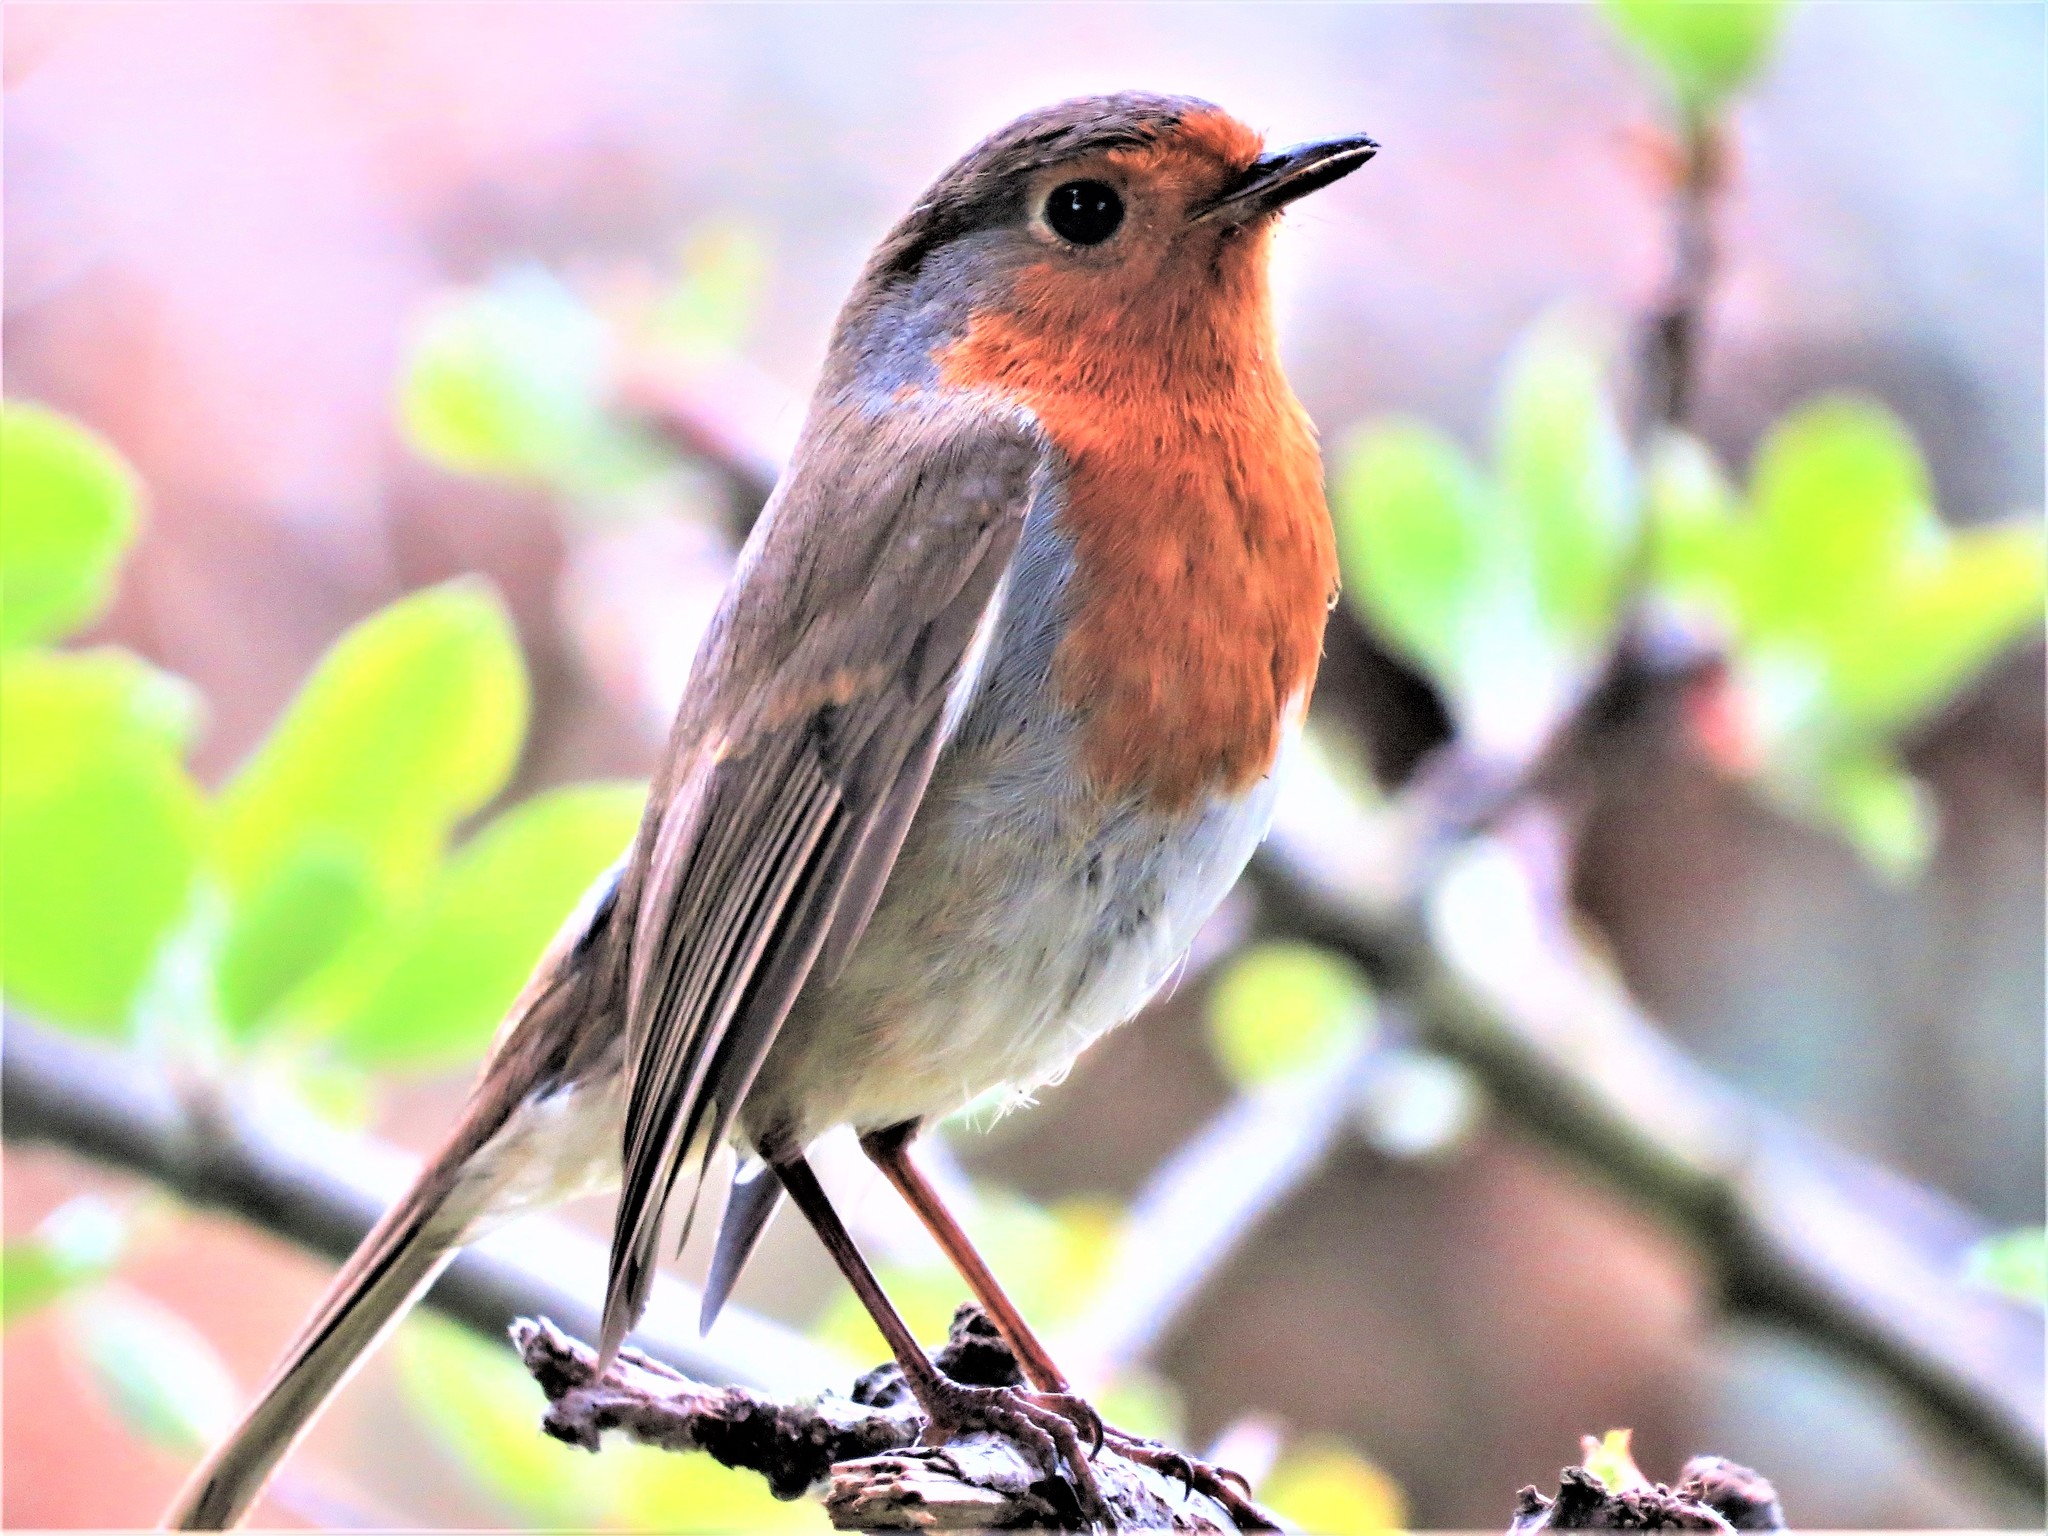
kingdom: Animalia
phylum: Chordata
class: Aves
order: Passeriformes
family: Muscicapidae
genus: Erithacus
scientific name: Erithacus rubecula
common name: European robin
